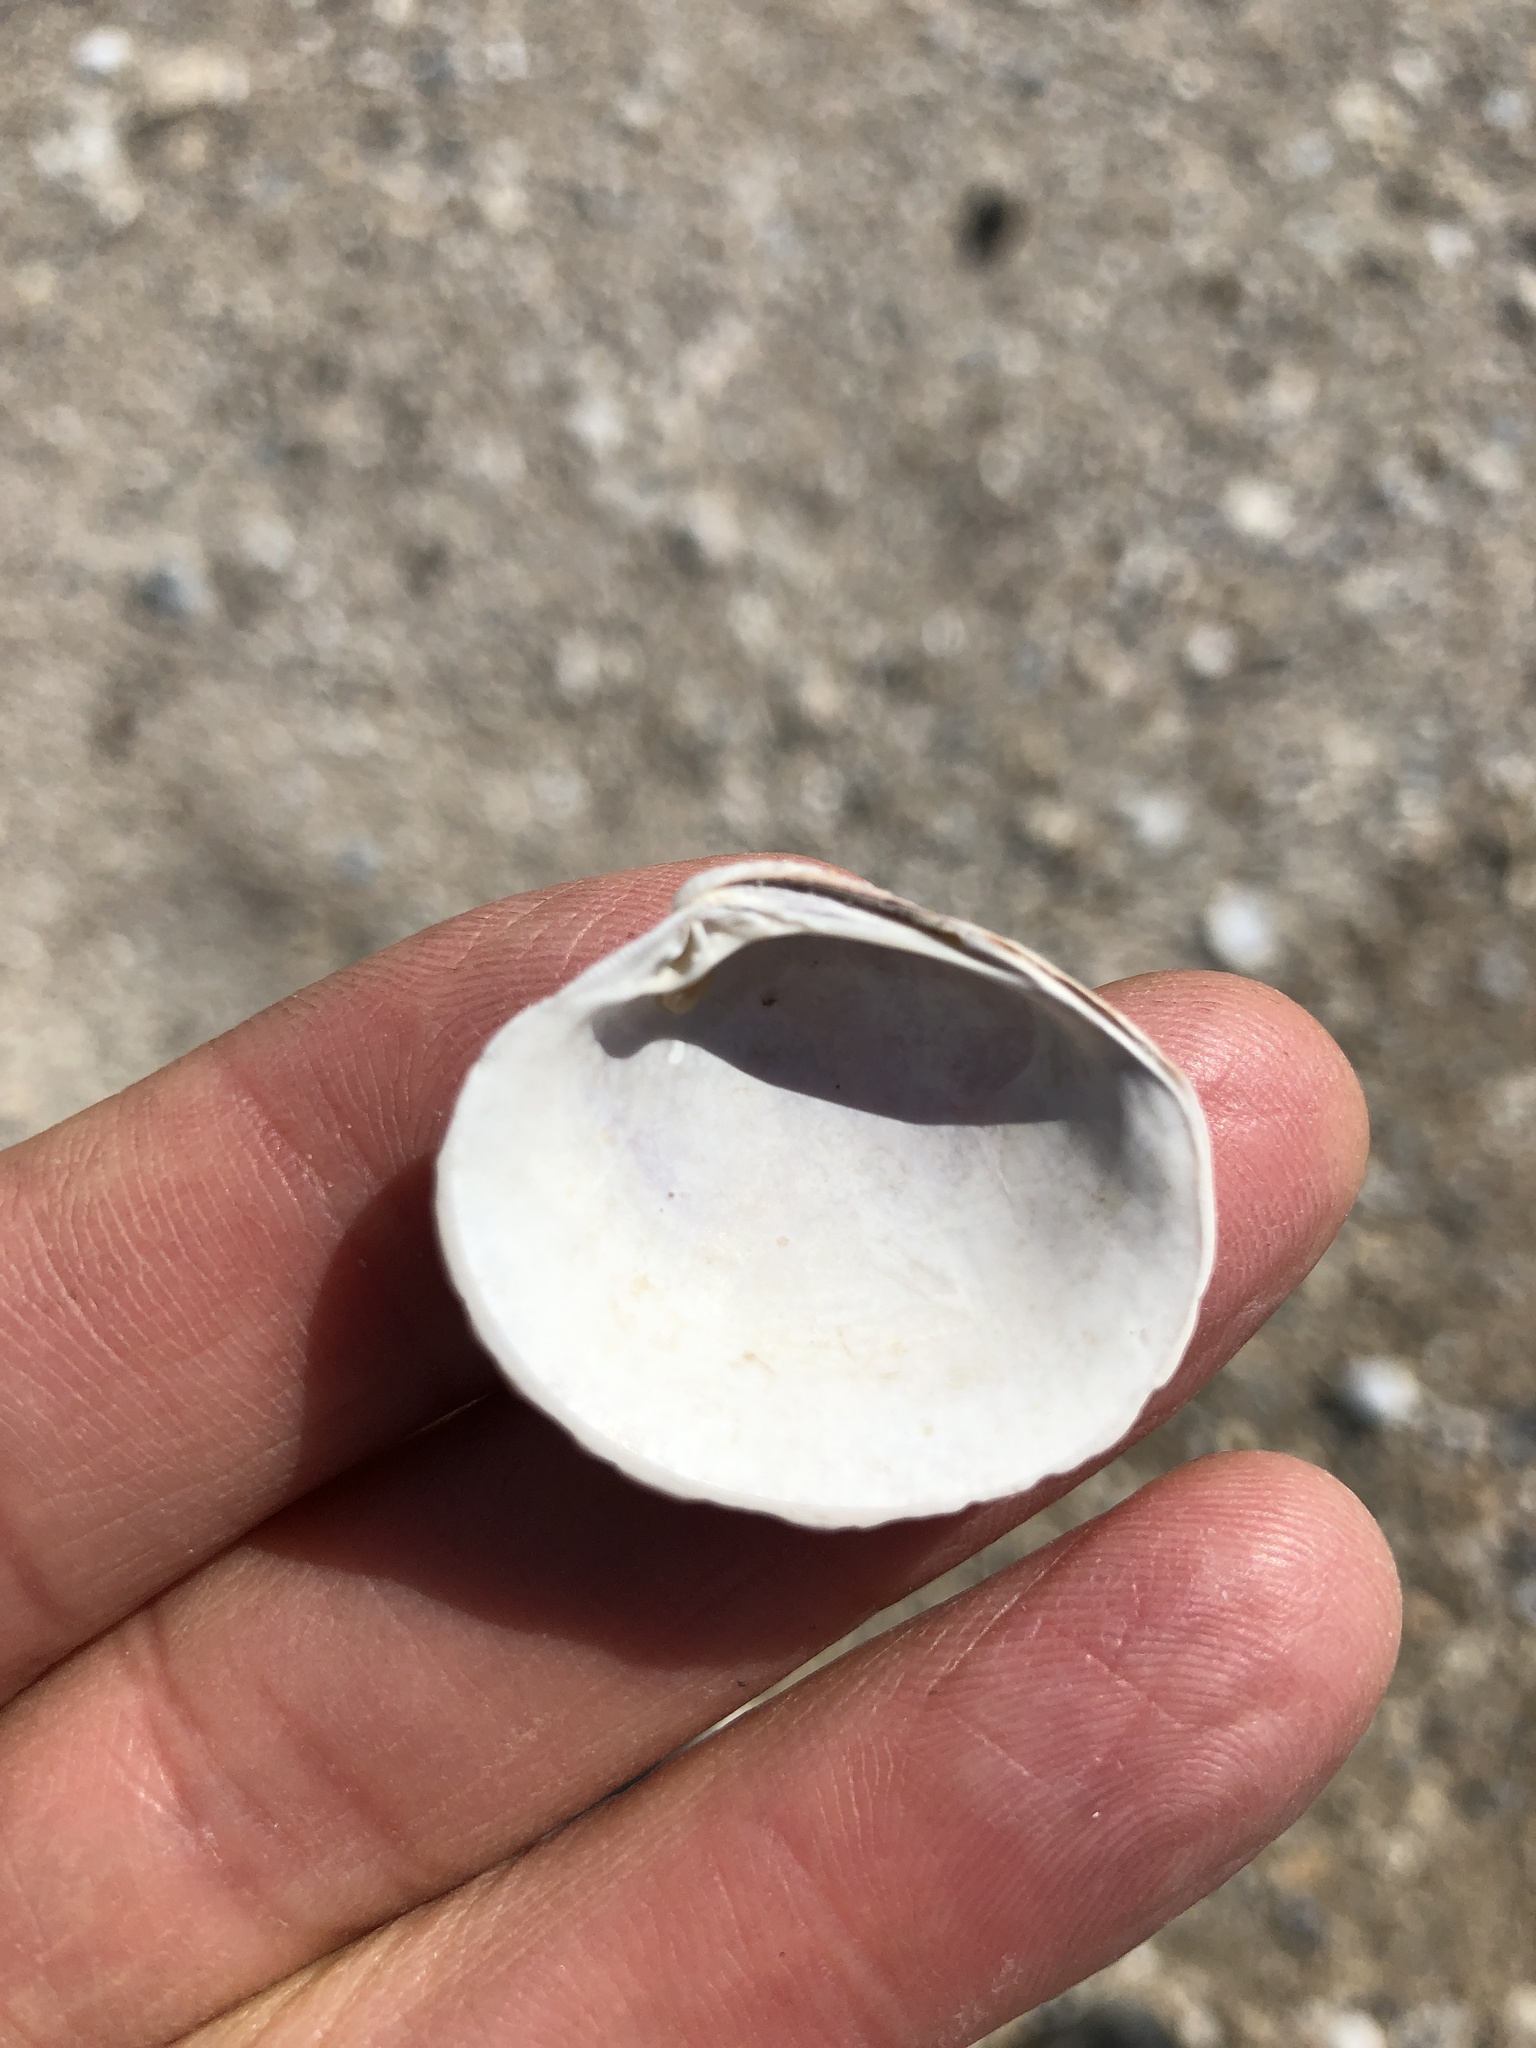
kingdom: Animalia
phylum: Mollusca
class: Bivalvia
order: Venerida
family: Veneridae
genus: Mercenaria
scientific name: Mercenaria campechiensis
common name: Südliche quahog-muschel
